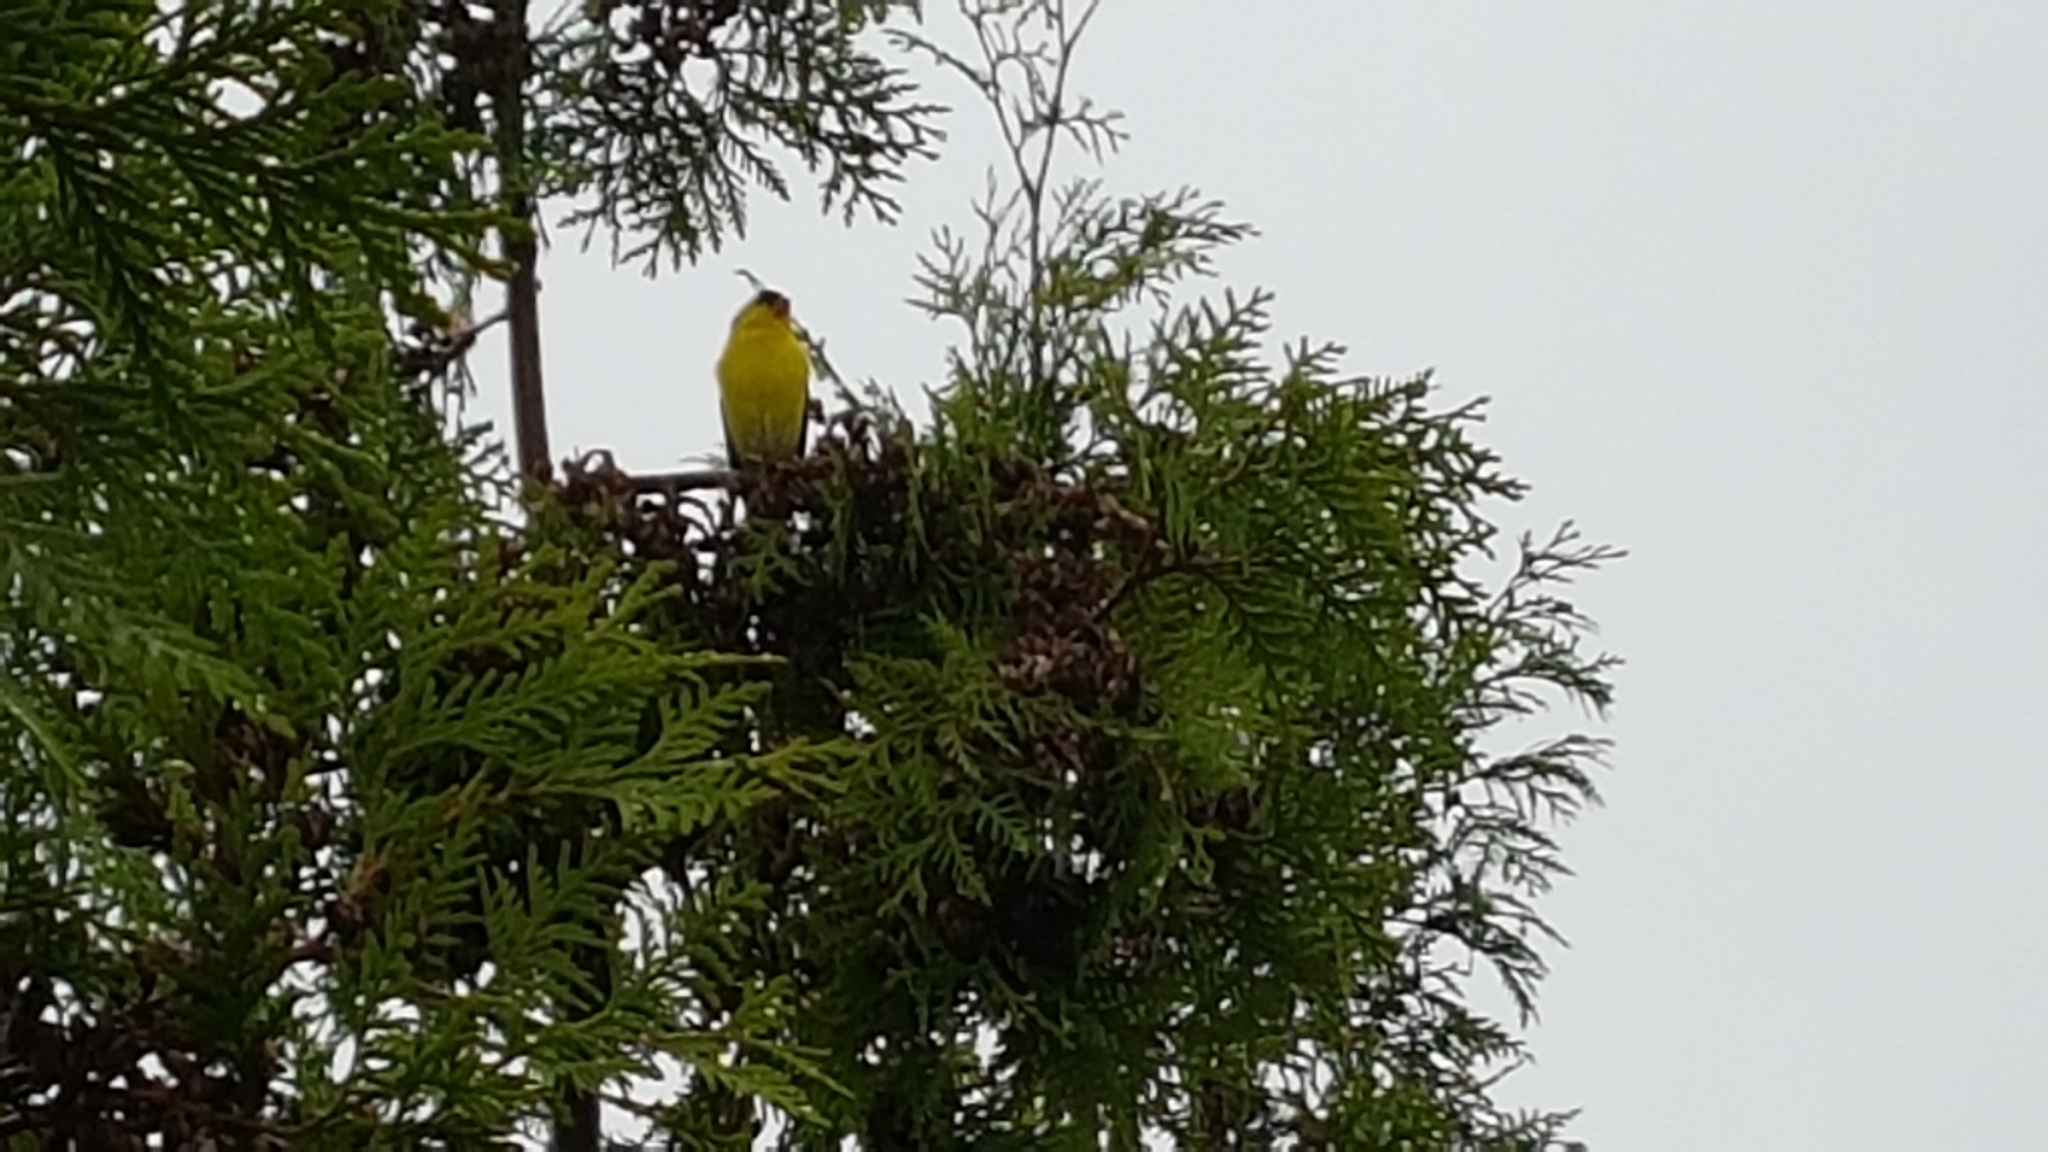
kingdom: Animalia
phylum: Chordata
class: Aves
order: Passeriformes
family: Fringillidae
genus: Spinus
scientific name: Spinus tristis
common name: American goldfinch
